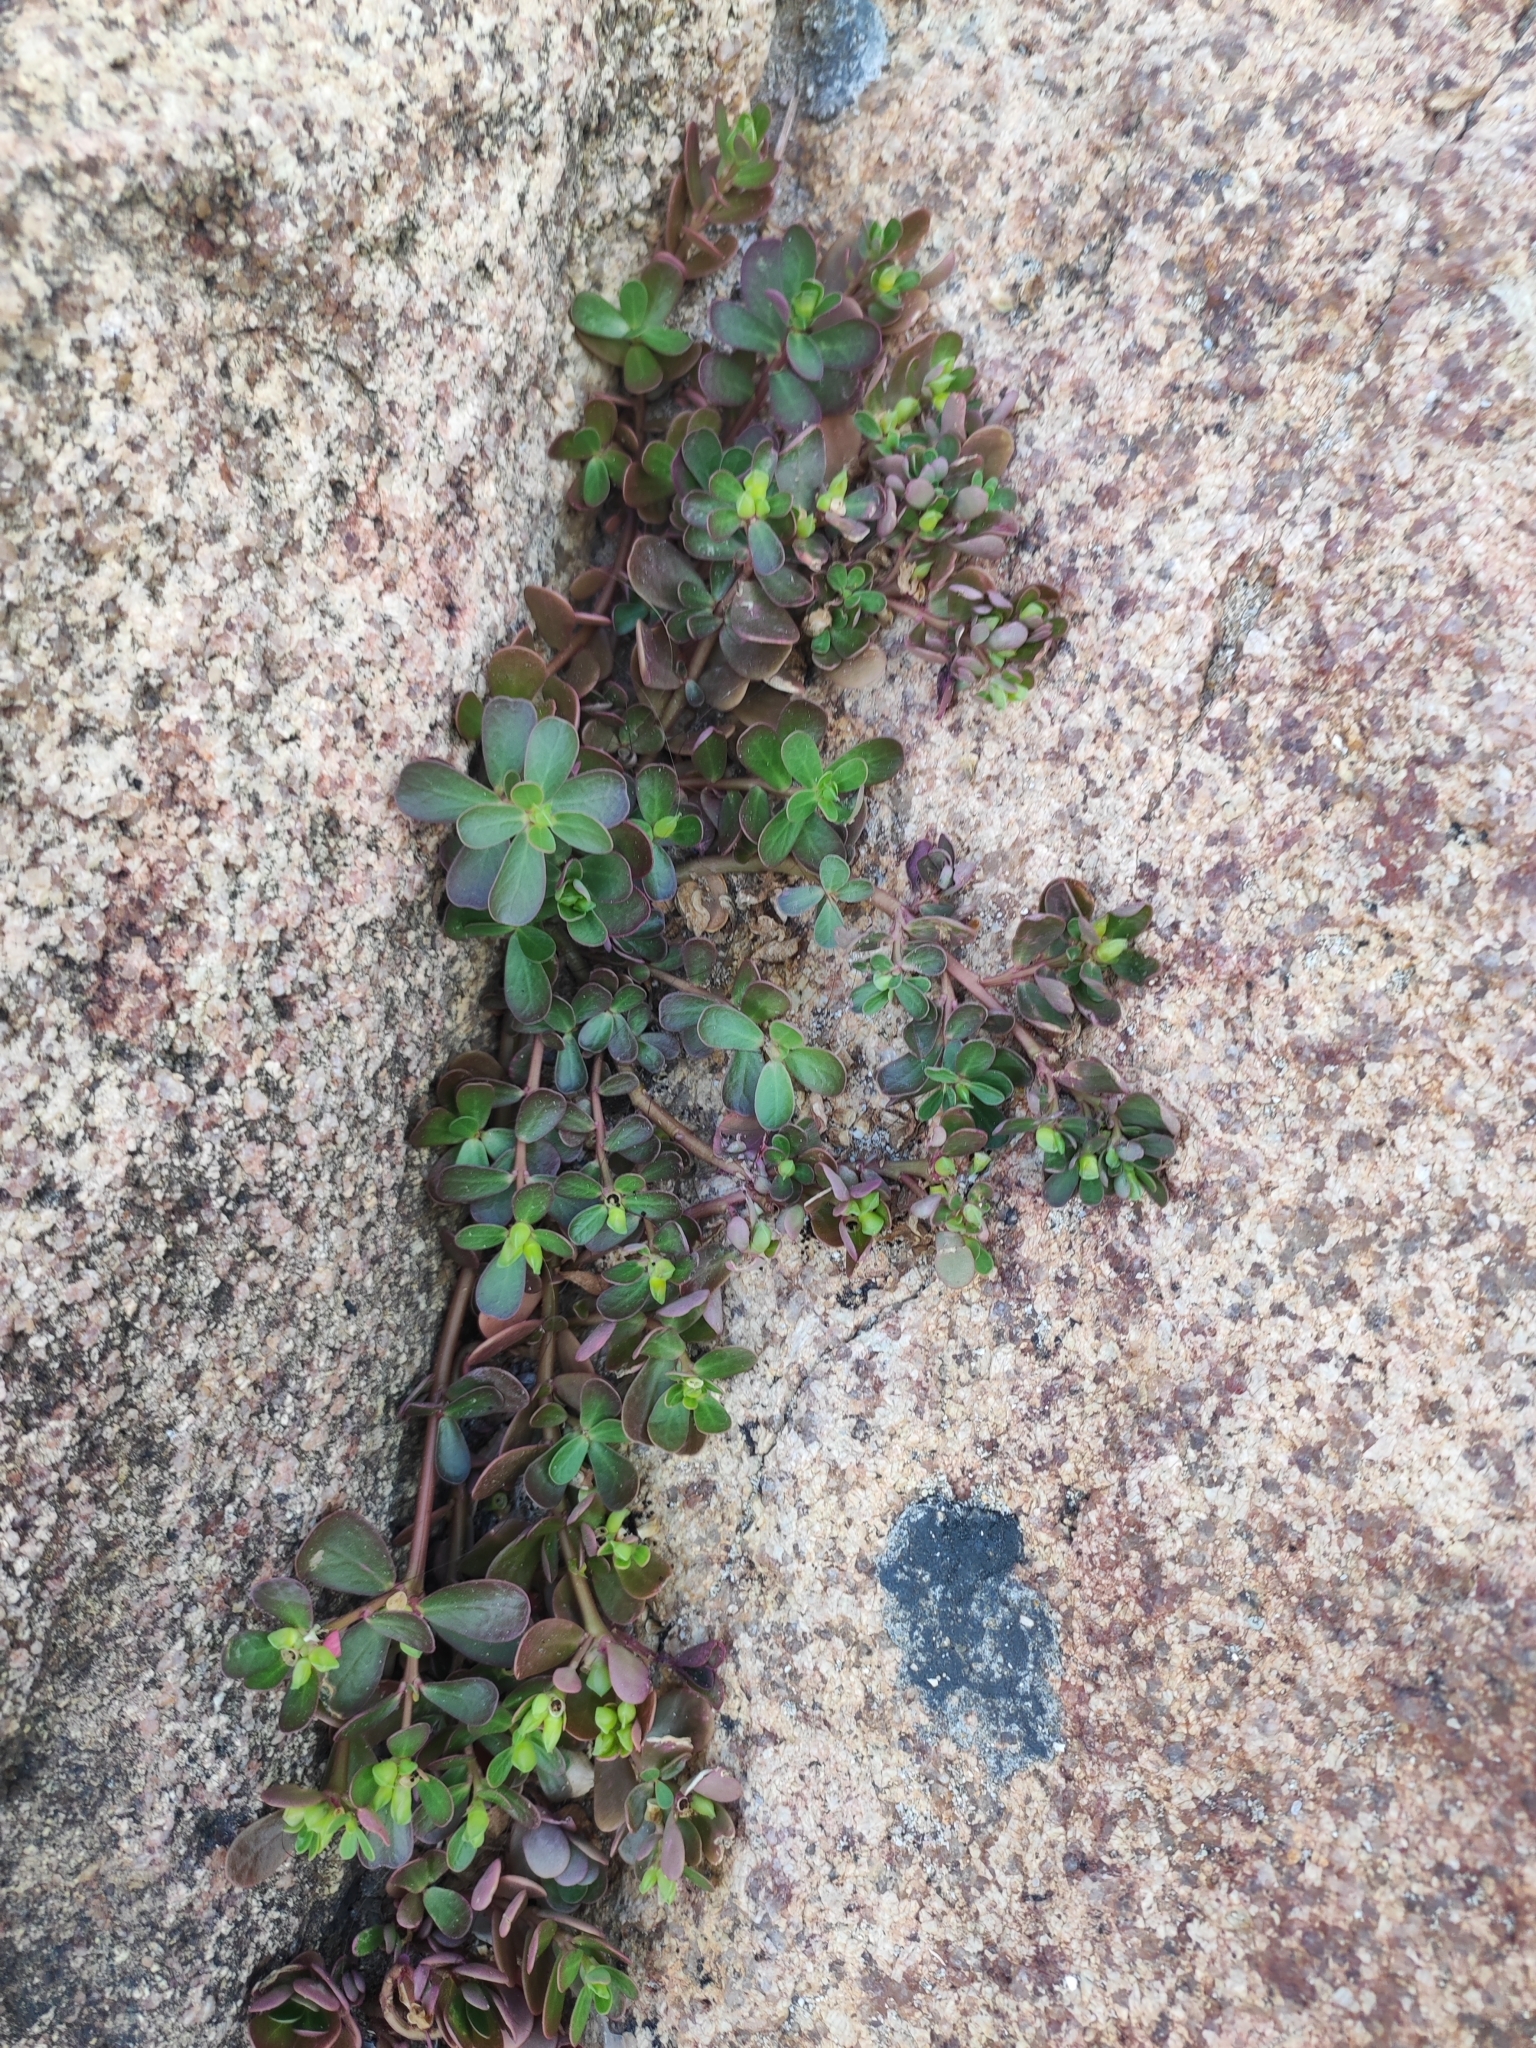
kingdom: Plantae
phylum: Tracheophyta
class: Magnoliopsida
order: Caryophyllales
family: Portulacaceae
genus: Portulaca
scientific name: Portulaca oleracea
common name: Common purslane
